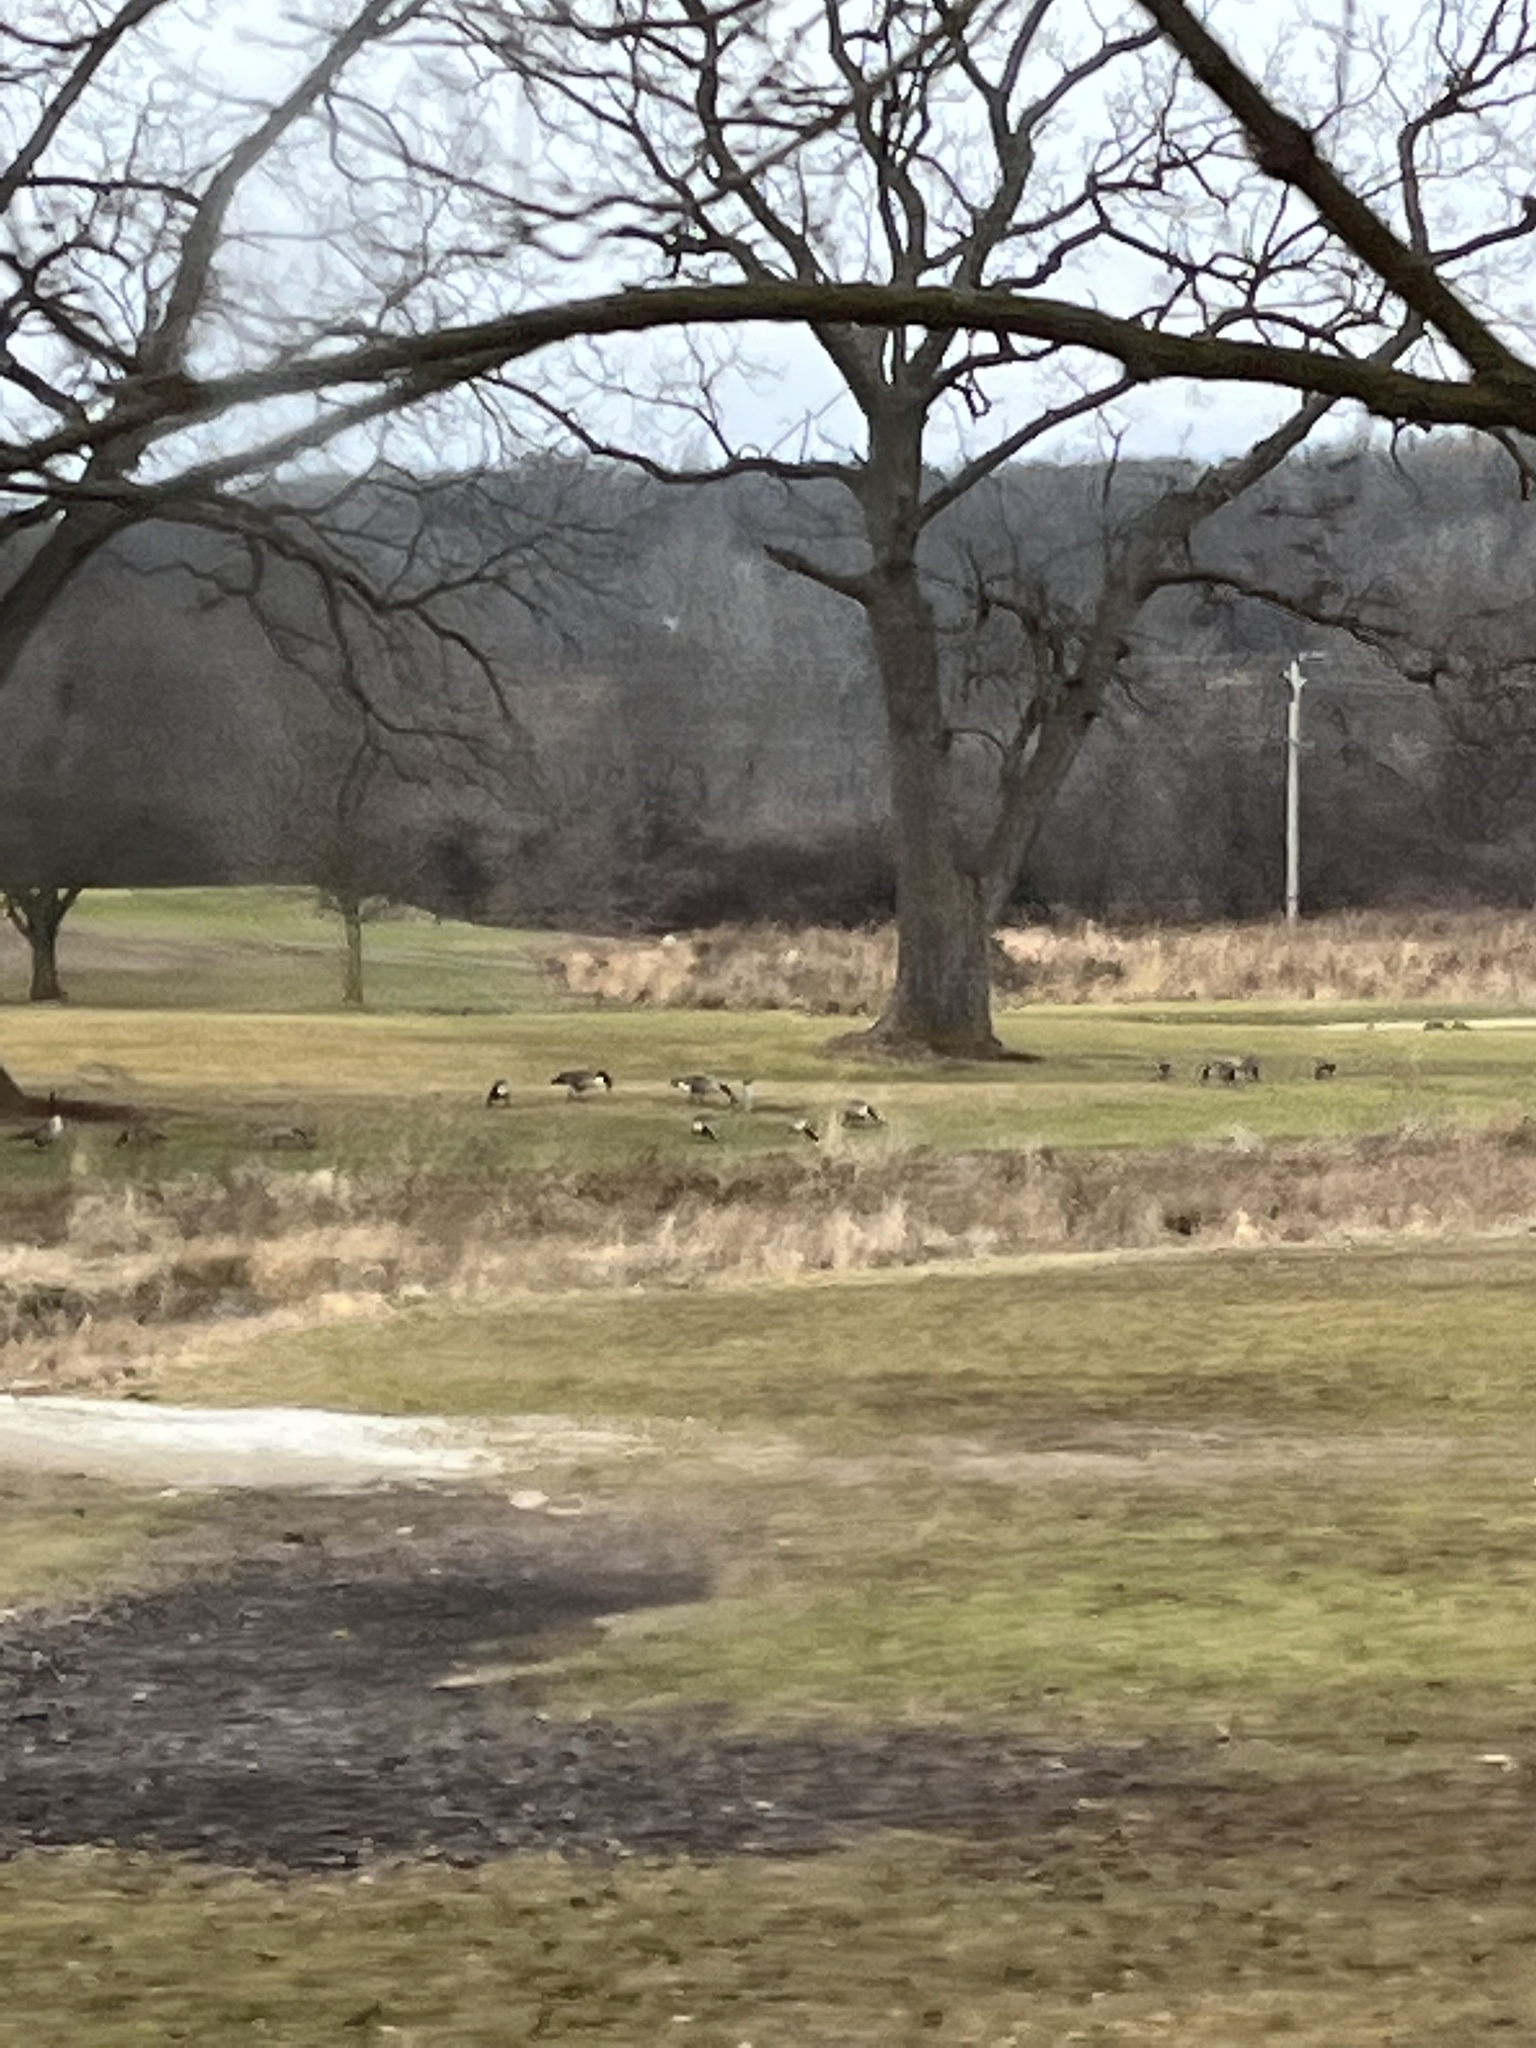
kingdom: Animalia
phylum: Chordata
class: Aves
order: Anseriformes
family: Anatidae
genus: Branta
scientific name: Branta canadensis
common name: Canada goose
